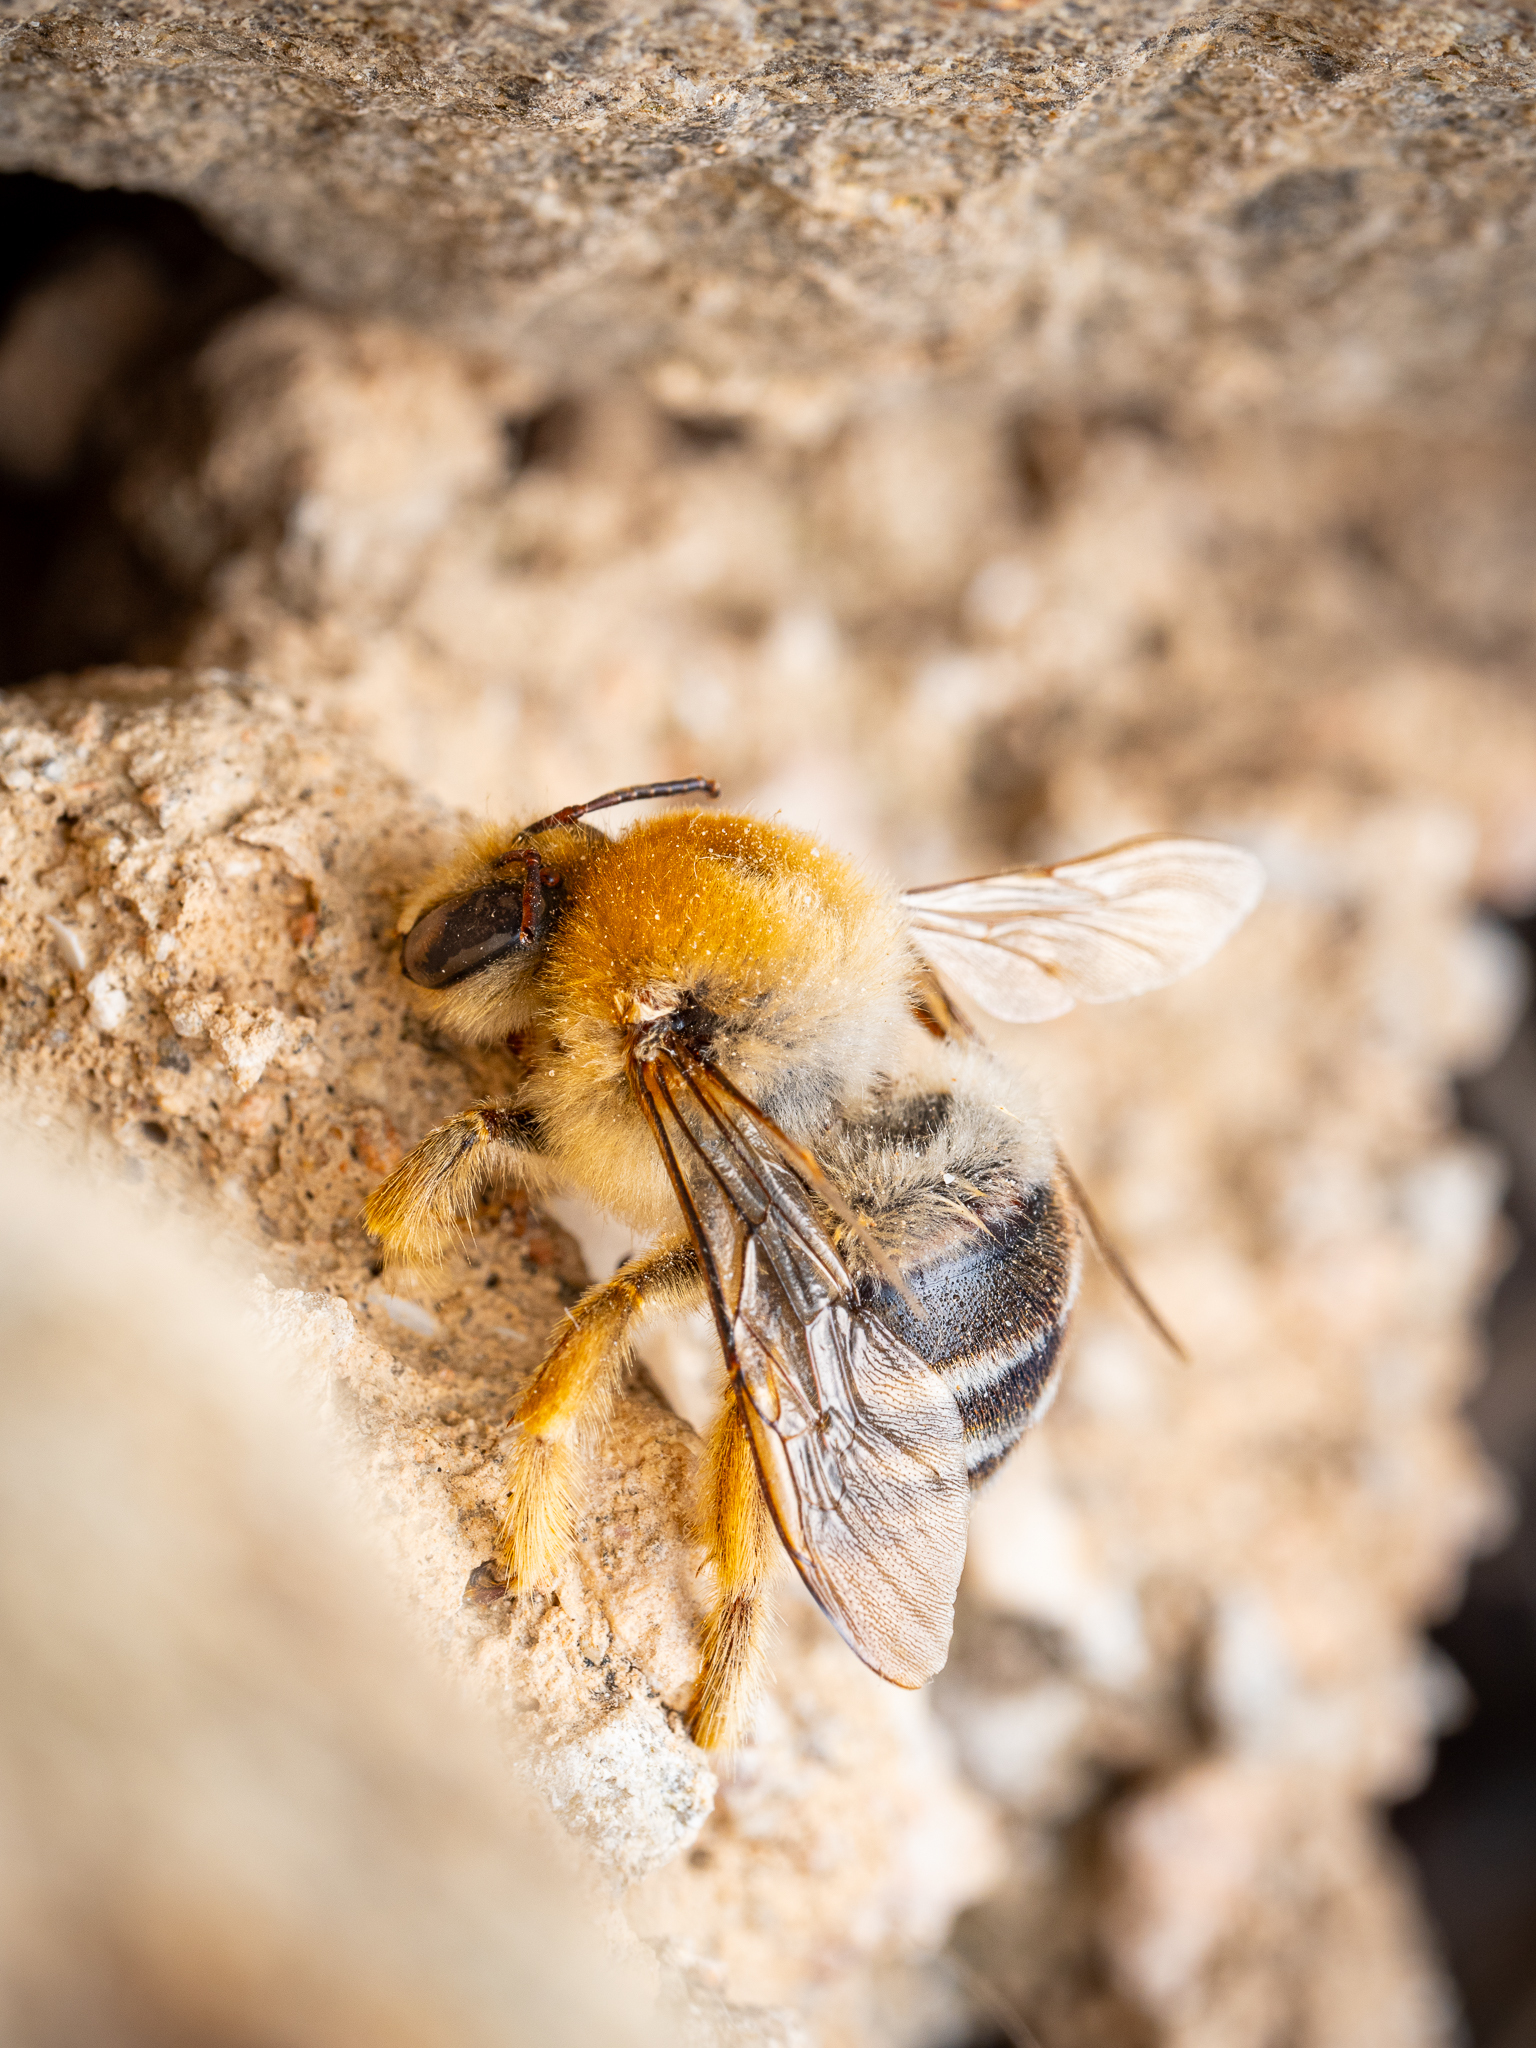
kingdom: Animalia
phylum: Arthropoda
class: Insecta
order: Hymenoptera
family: Apidae
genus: Xylocopa
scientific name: Xylocopa olivieri
